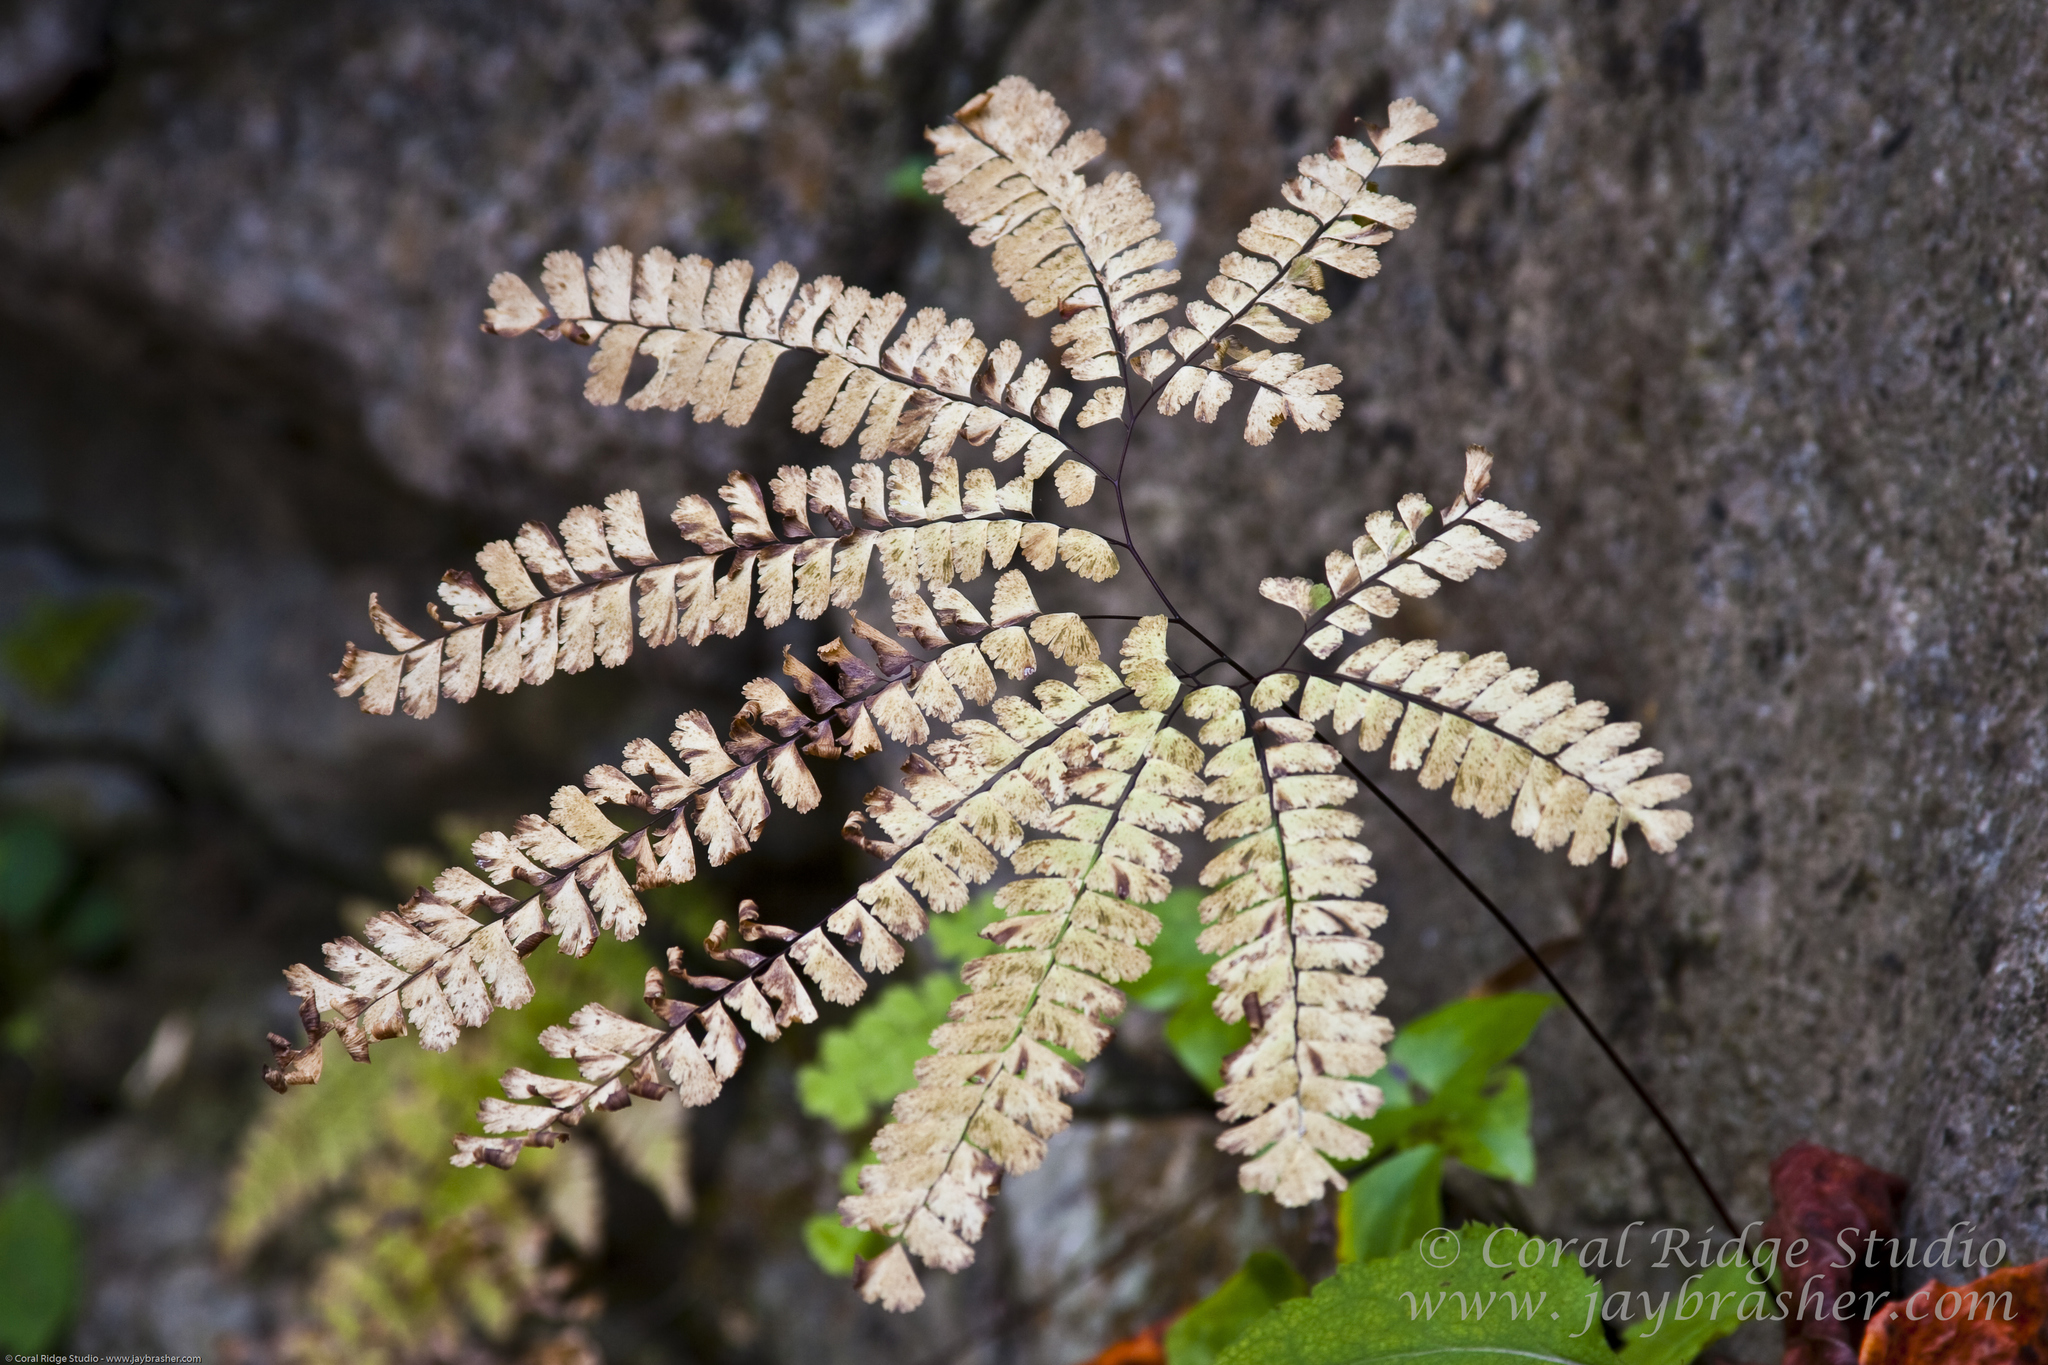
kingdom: Plantae
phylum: Tracheophyta
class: Polypodiopsida
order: Polypodiales
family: Pteridaceae
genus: Adiantum
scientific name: Adiantum pedatum
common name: Five-finger fern
